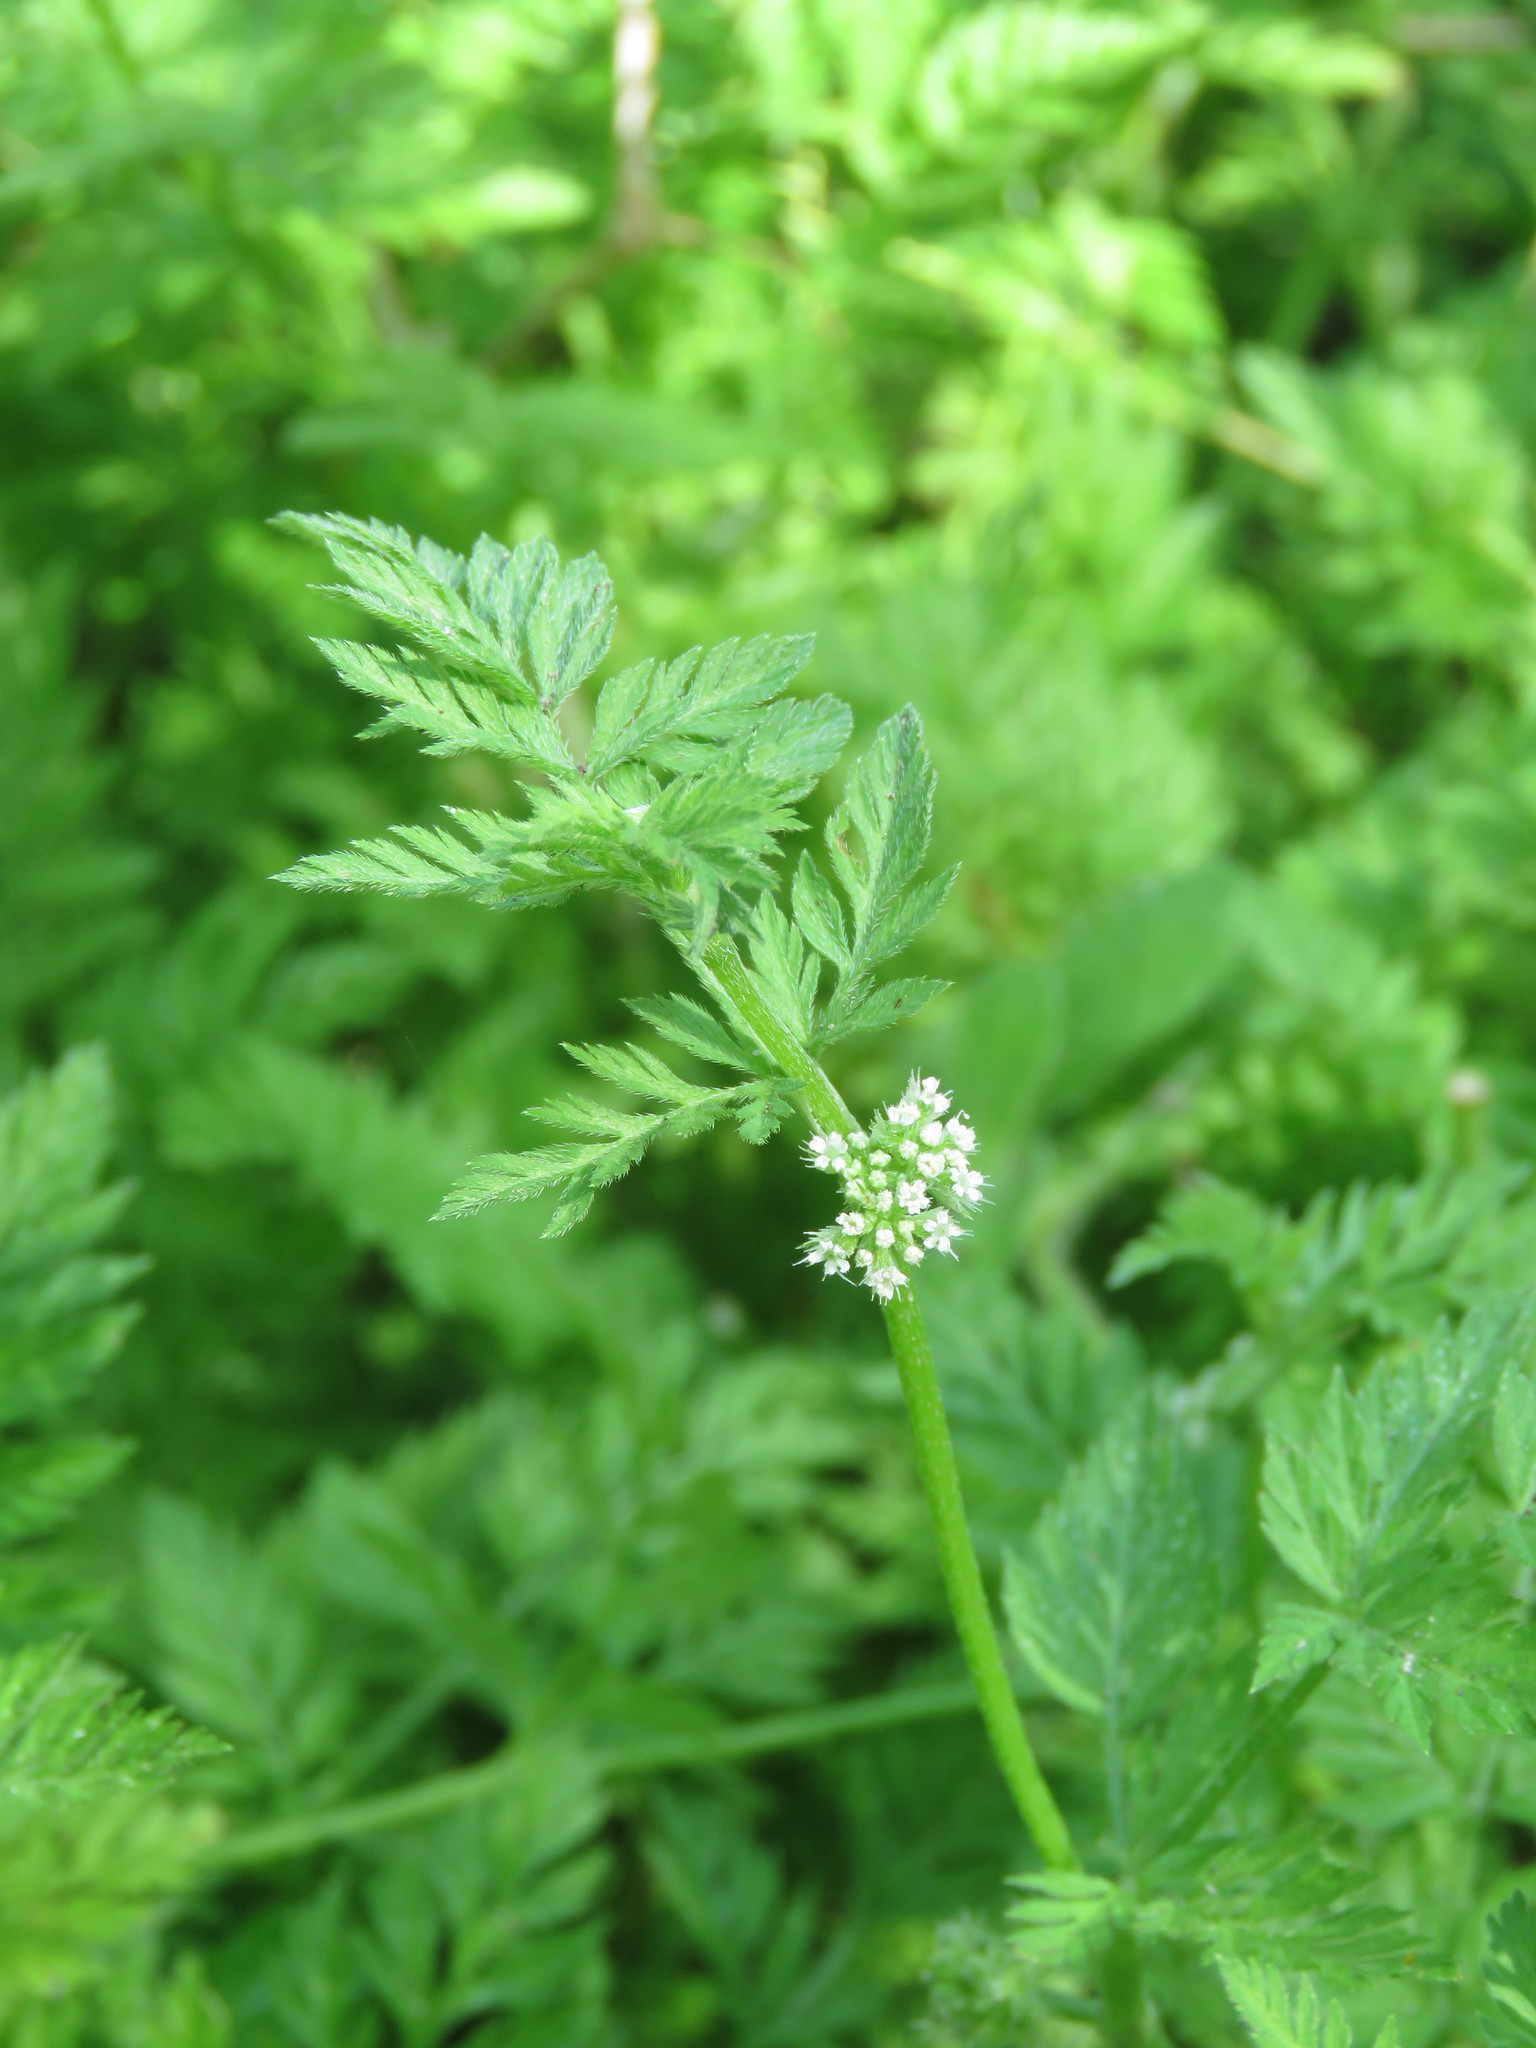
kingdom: Plantae
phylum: Tracheophyta
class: Magnoliopsida
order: Apiales
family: Apiaceae
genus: Chaerophyllum
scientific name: Chaerophyllum tainturieri
